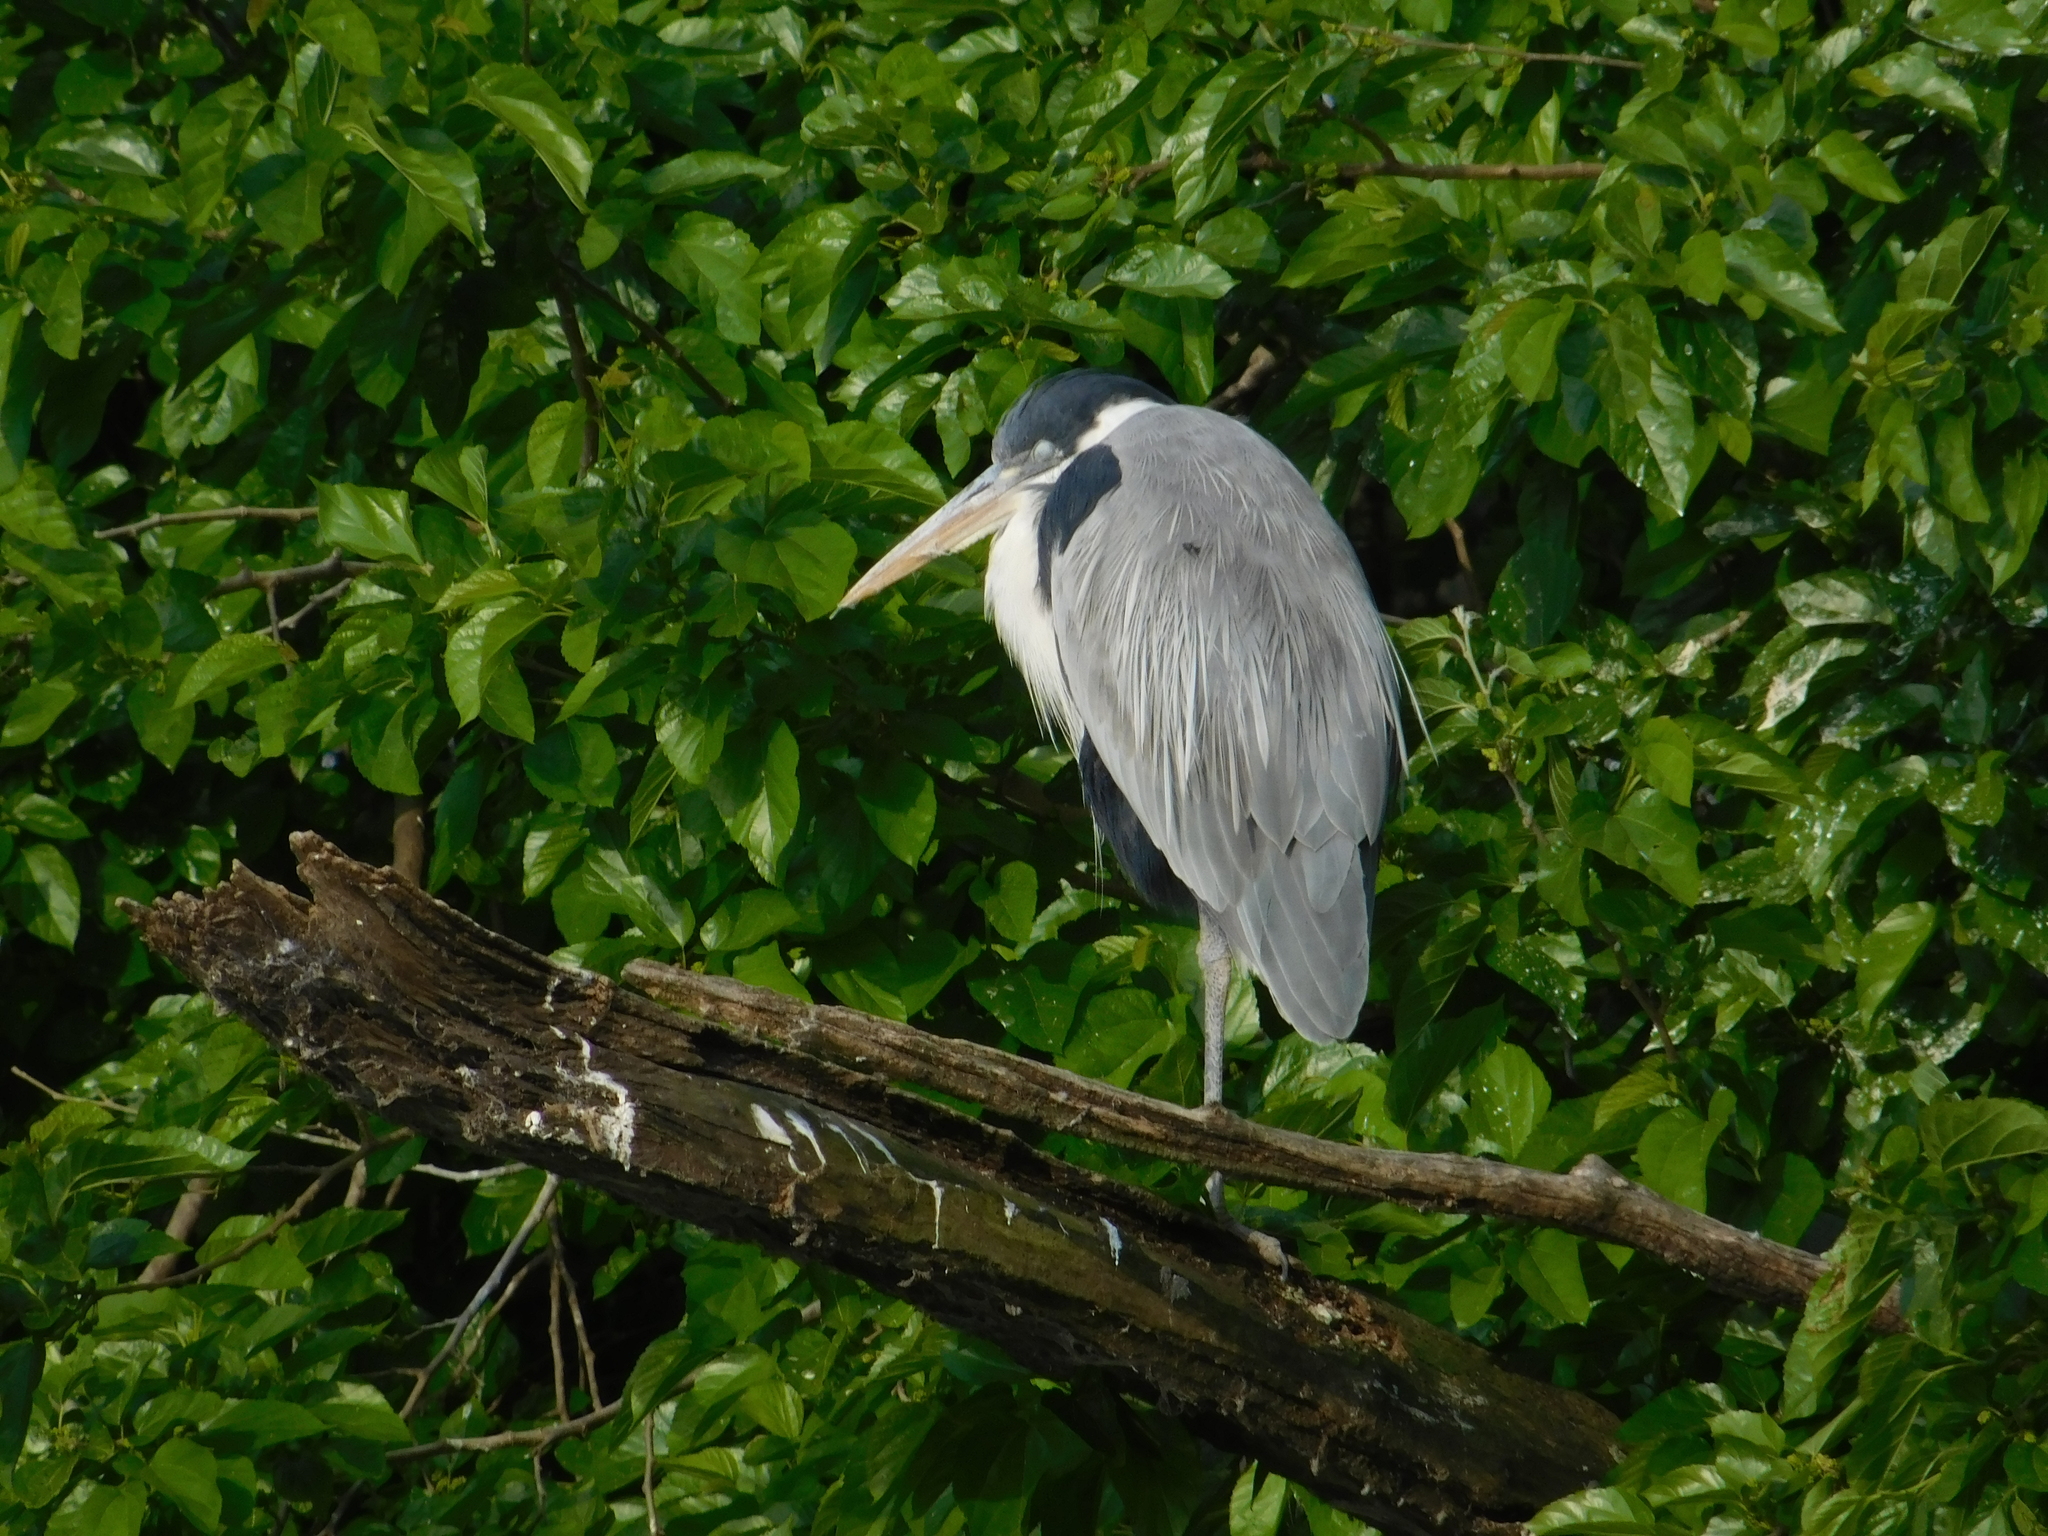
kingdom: Animalia
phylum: Chordata
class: Aves
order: Pelecaniformes
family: Ardeidae
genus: Ardea
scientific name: Ardea cocoi
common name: Cocoi heron
